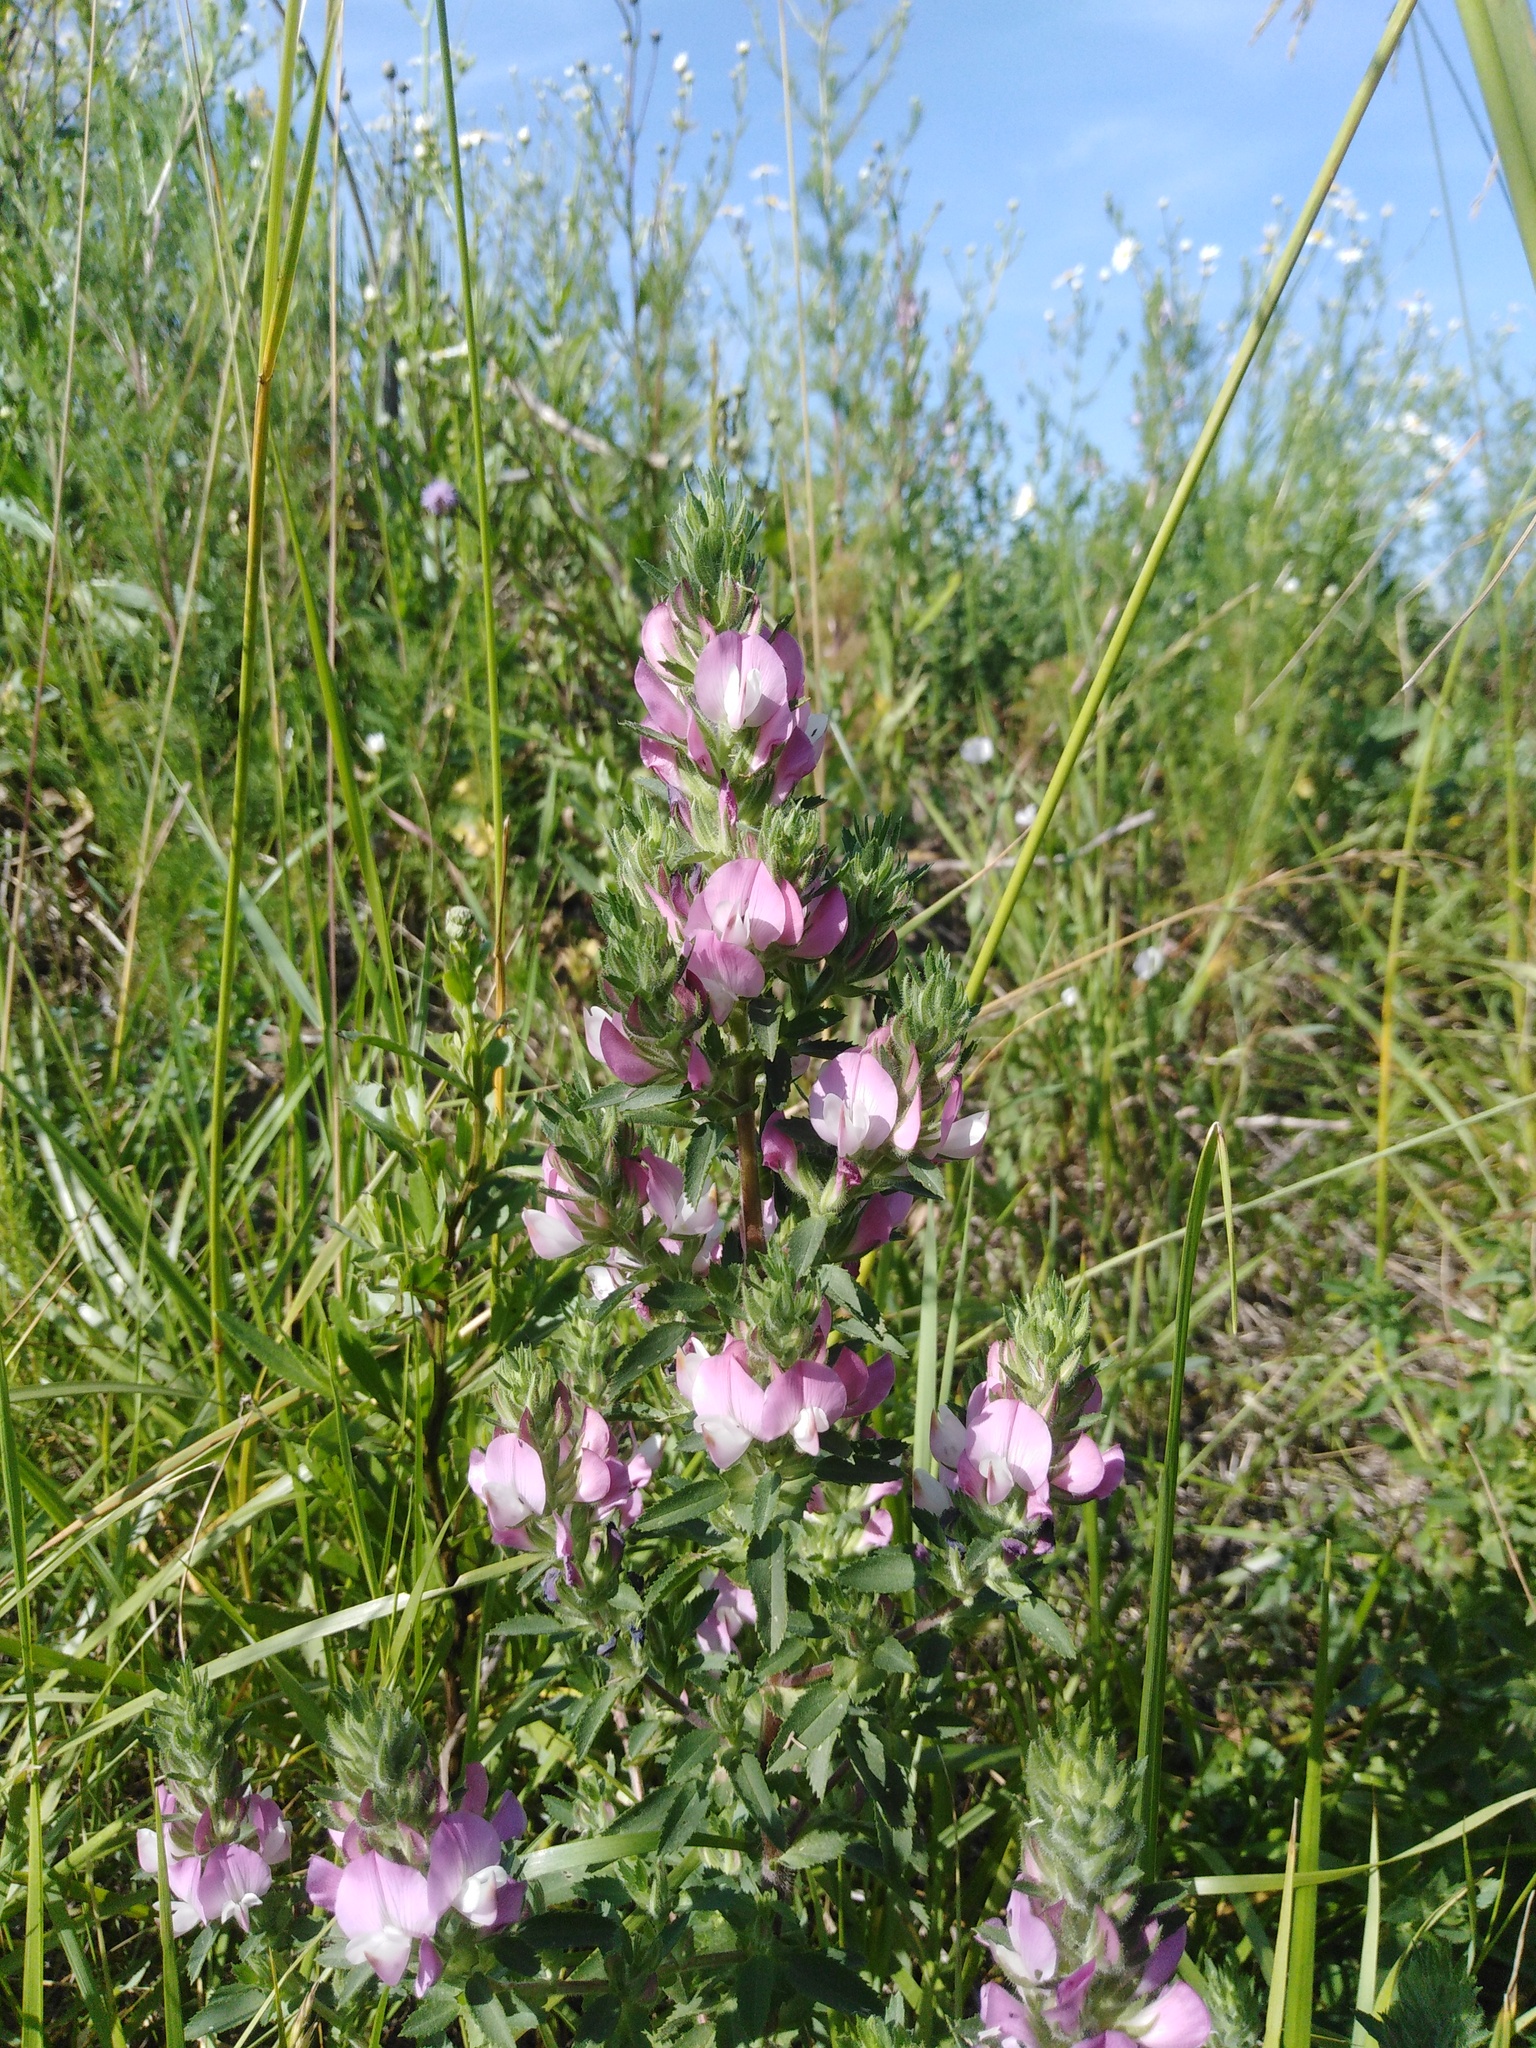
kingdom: Plantae
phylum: Tracheophyta
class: Magnoliopsida
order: Fabales
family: Fabaceae
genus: Ononis
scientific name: Ononis arvensis
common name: Field restharrow
